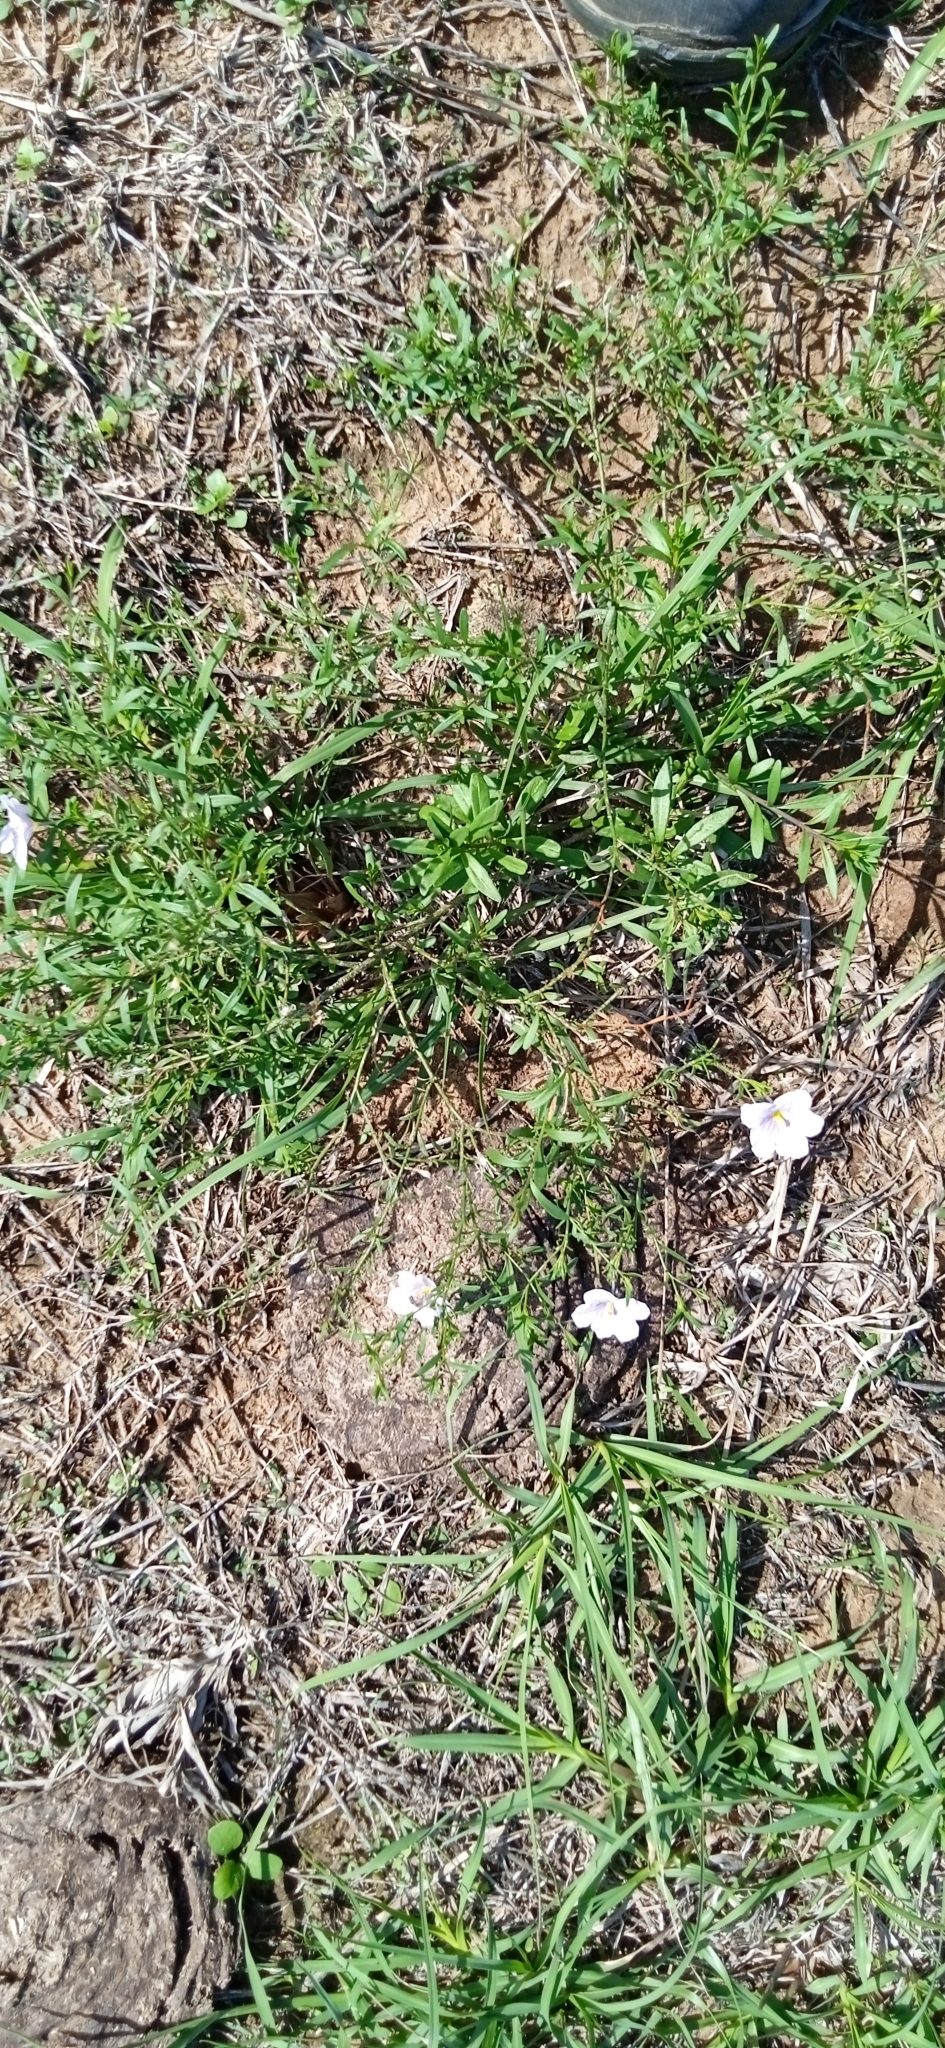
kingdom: Plantae
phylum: Tracheophyta
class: Magnoliopsida
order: Solanales
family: Solanaceae
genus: Nierembergia
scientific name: Nierembergia aristata
